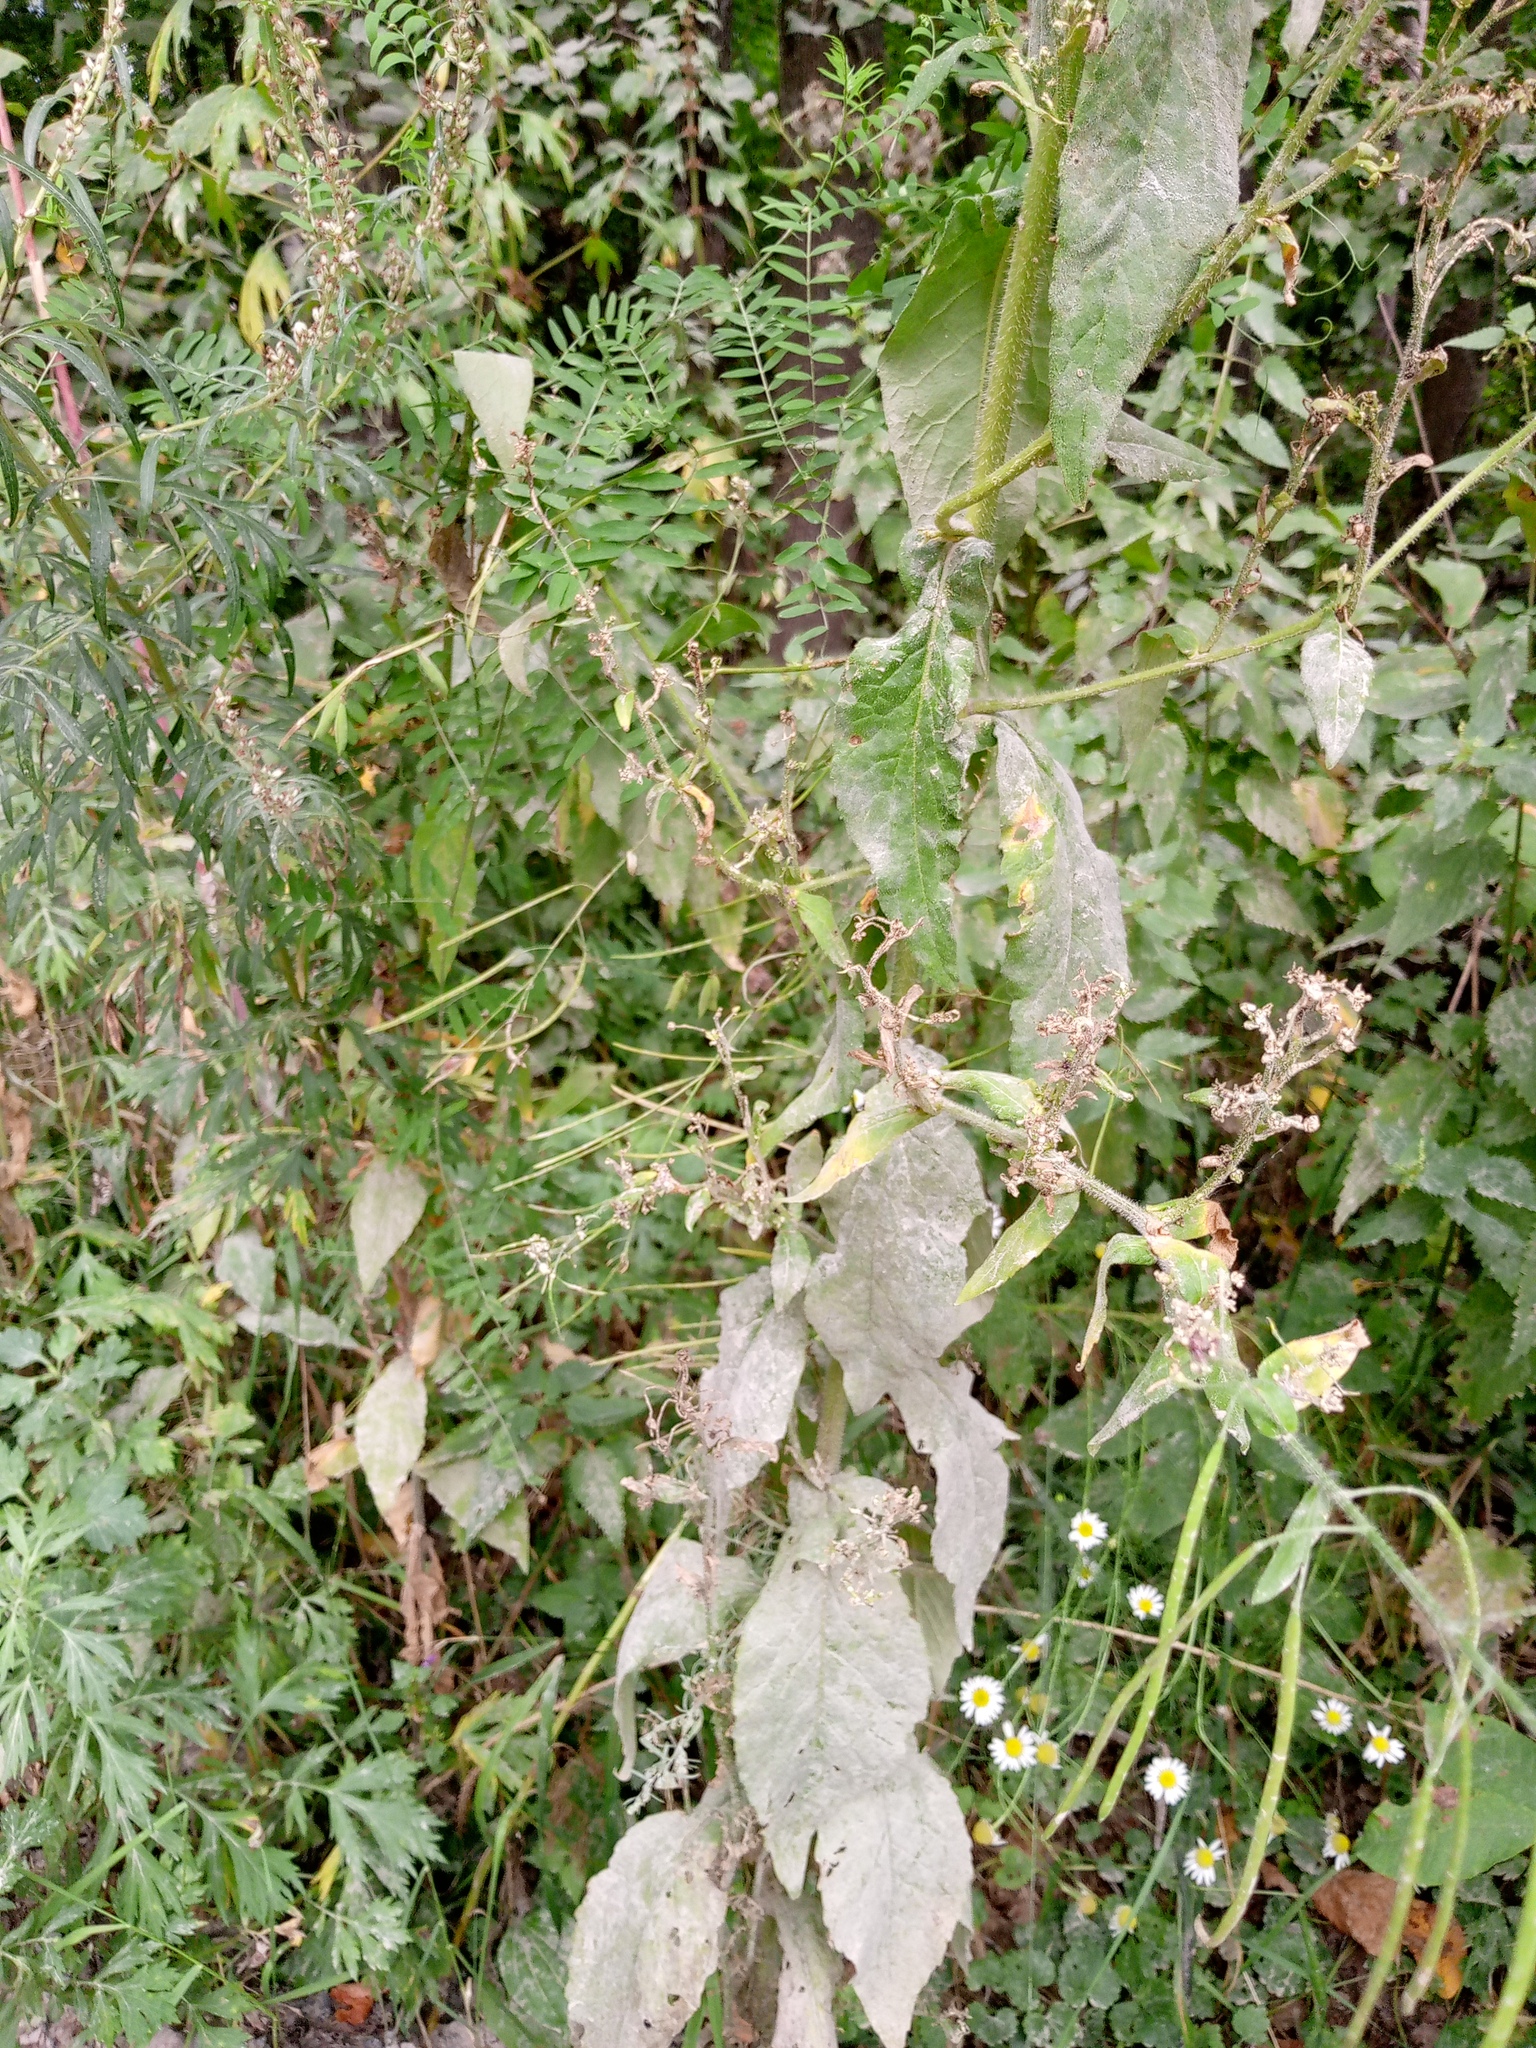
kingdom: Plantae
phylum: Tracheophyta
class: Magnoliopsida
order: Brassicales
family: Brassicaceae
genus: Catolobus
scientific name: Catolobus pendulus
